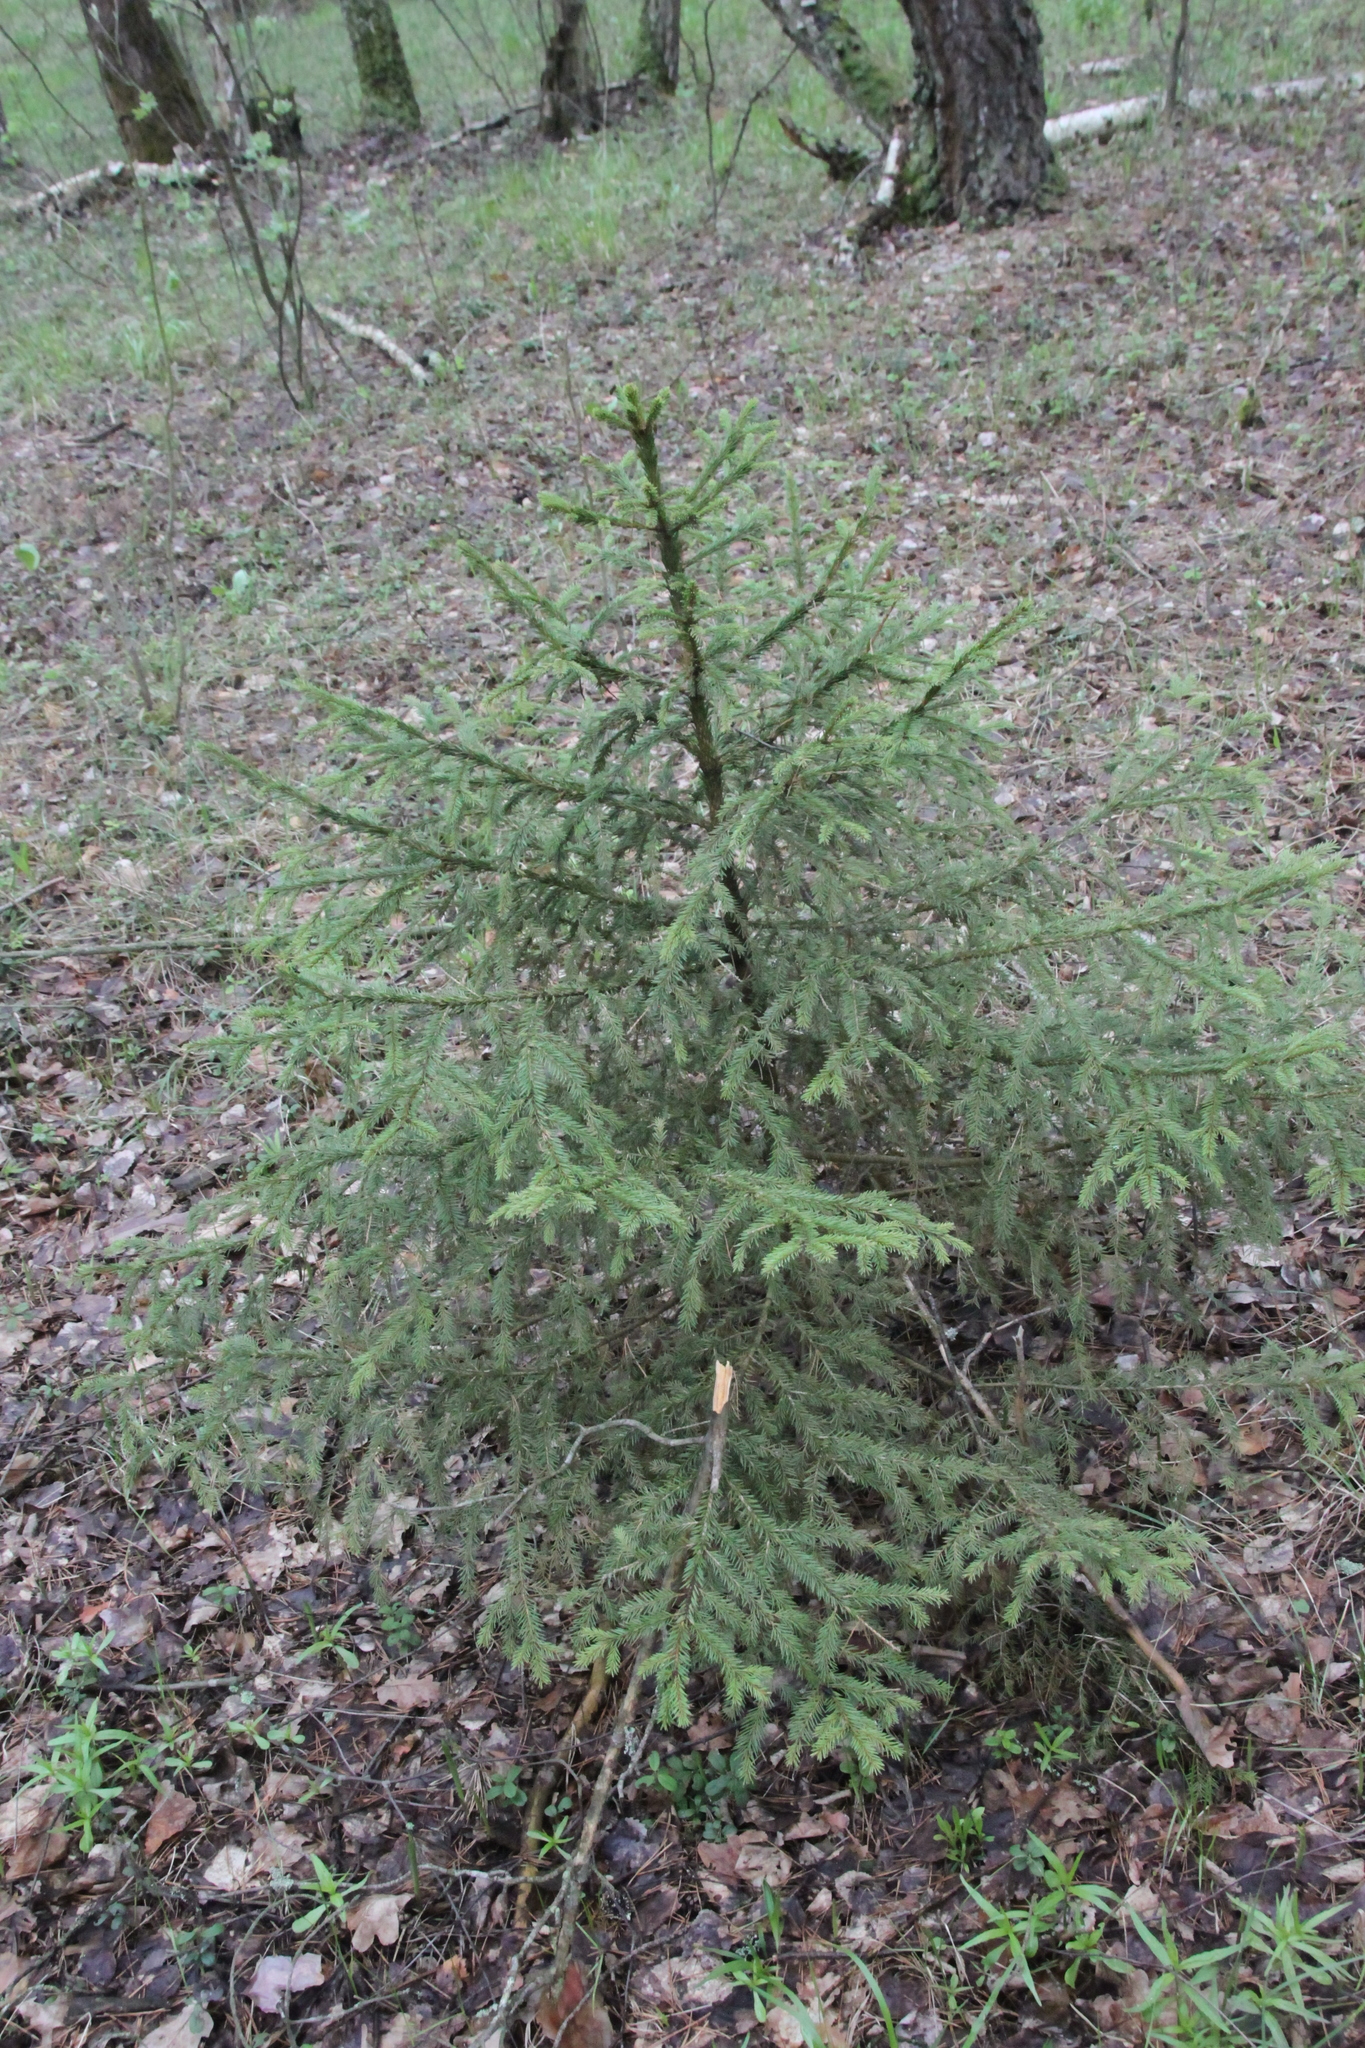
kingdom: Plantae
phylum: Tracheophyta
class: Pinopsida
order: Pinales
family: Pinaceae
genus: Picea
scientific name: Picea abies
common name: Norway spruce
